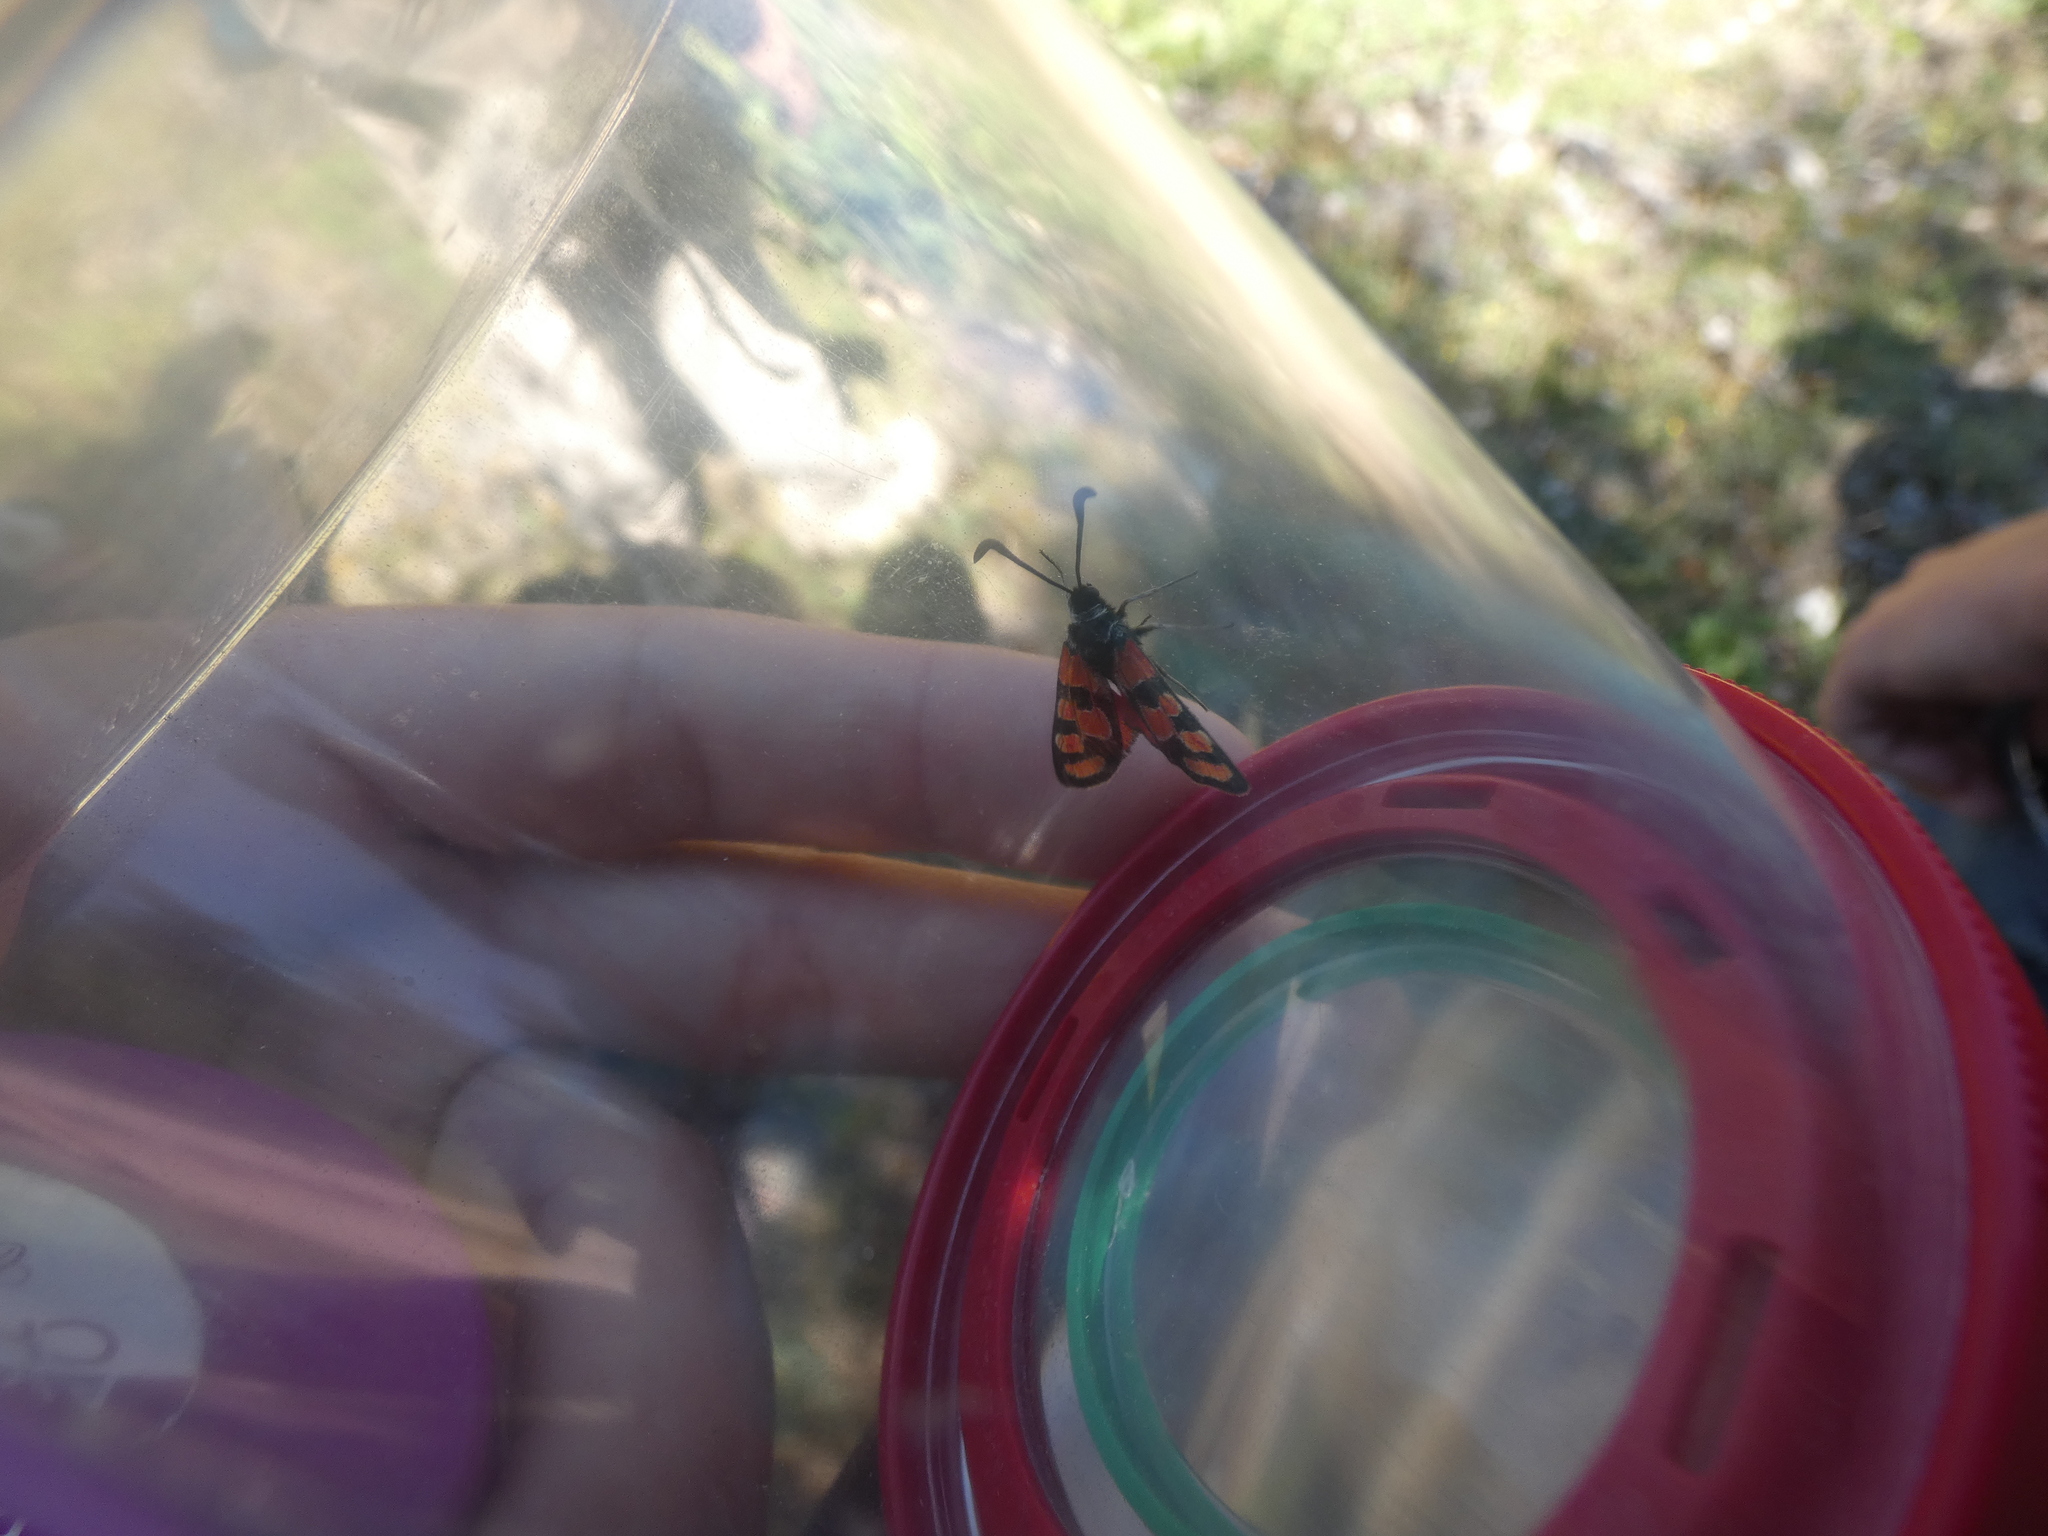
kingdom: Animalia
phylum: Arthropoda
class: Insecta
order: Lepidoptera
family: Zygaenidae
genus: Zygaena
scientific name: Zygaena carniolica
